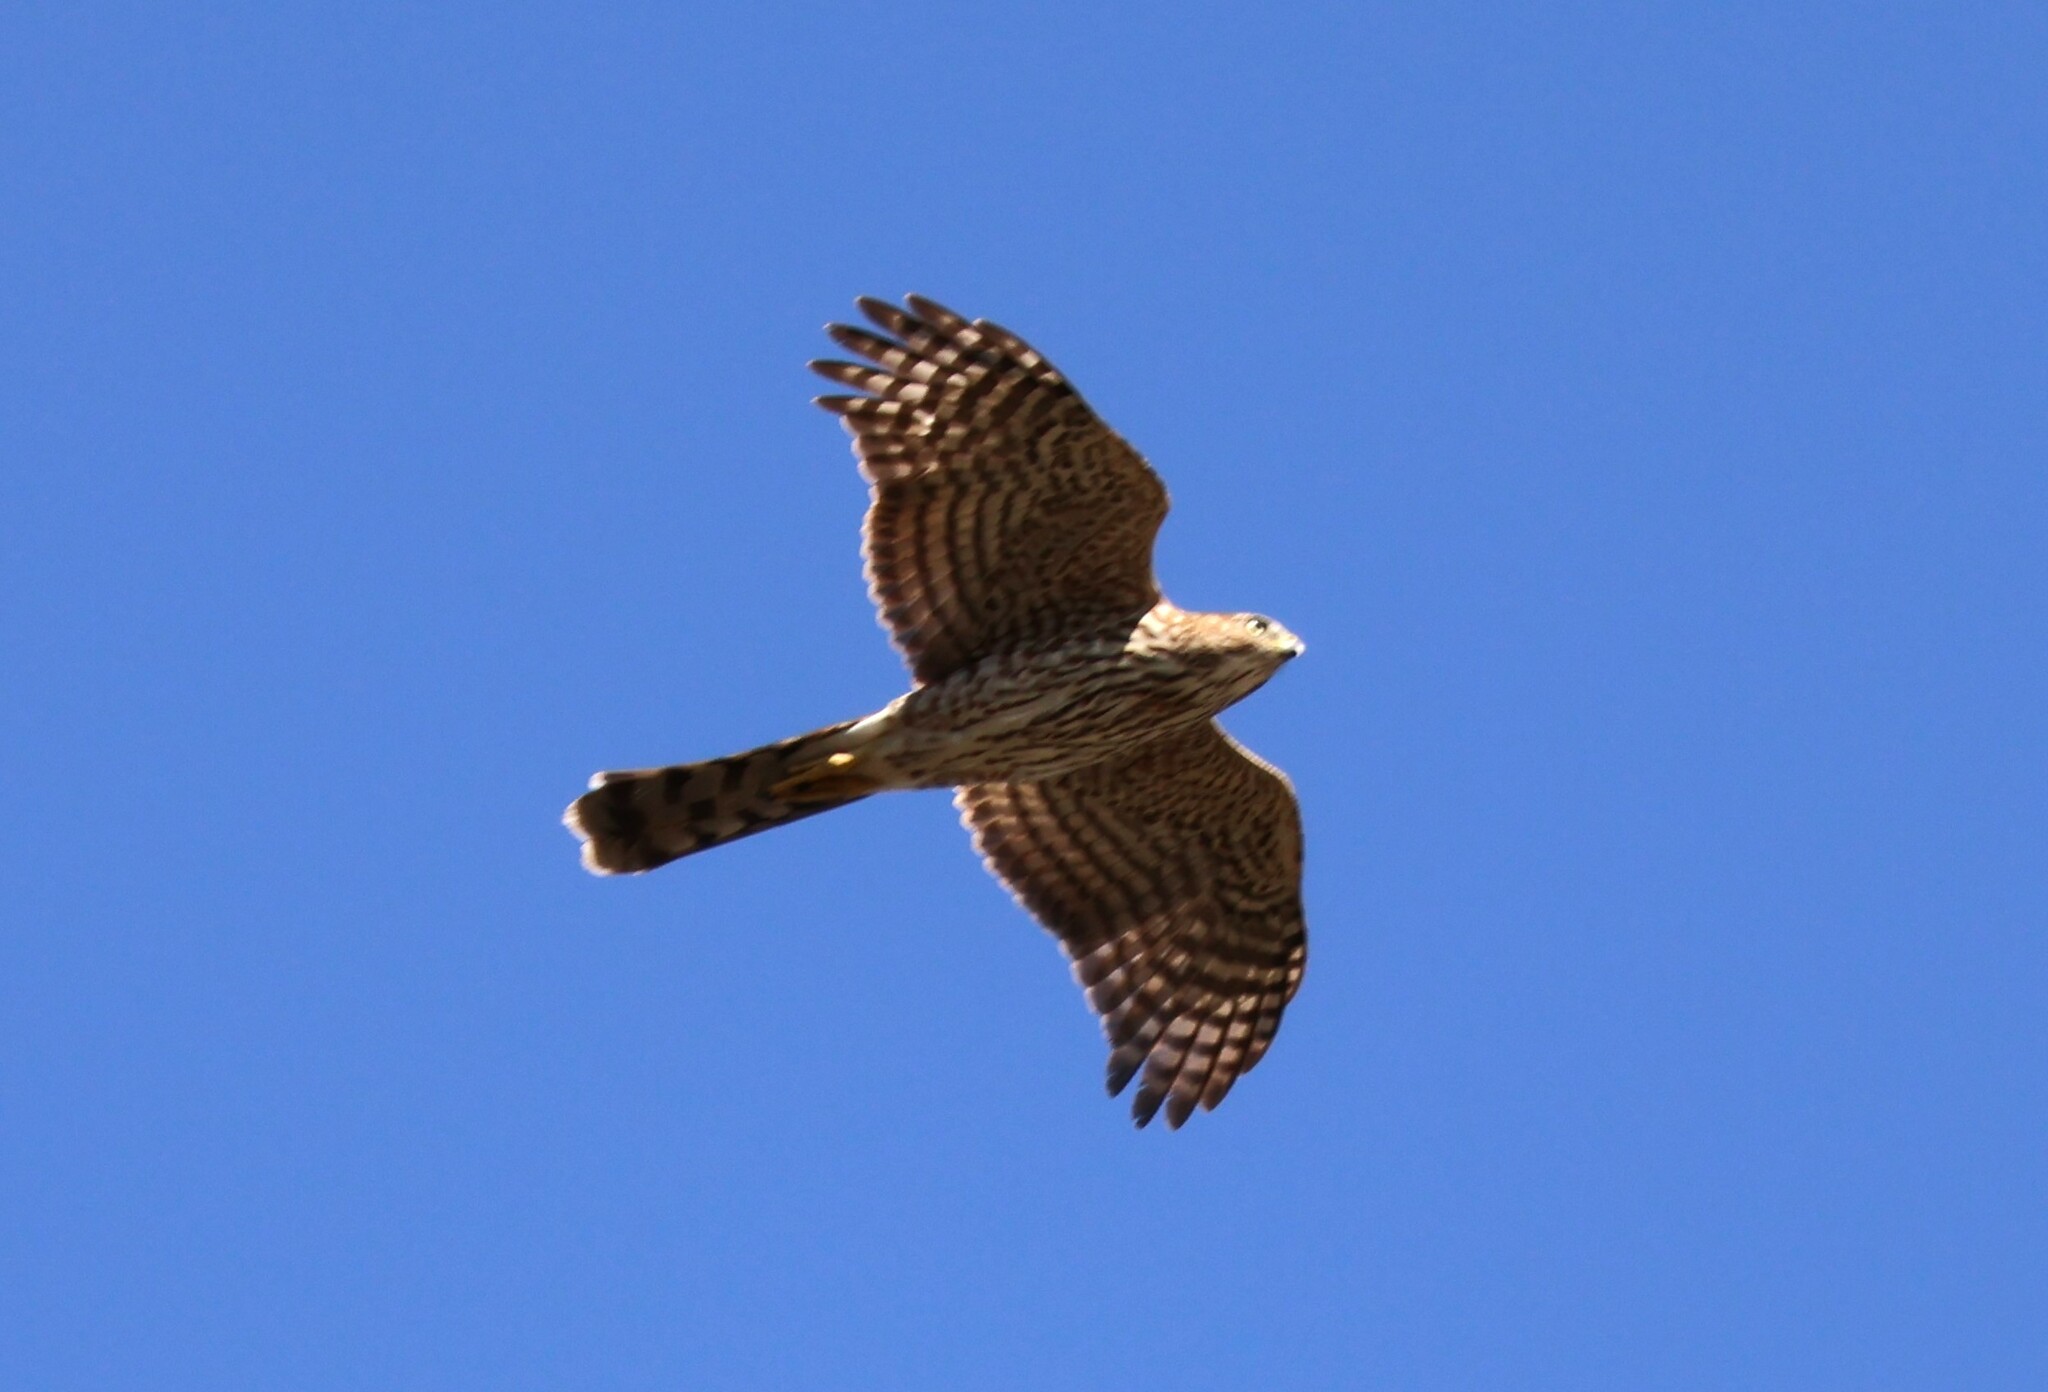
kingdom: Animalia
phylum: Chordata
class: Aves
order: Accipitriformes
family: Accipitridae
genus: Accipiter
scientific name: Accipiter cooperii
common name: Cooper's hawk
